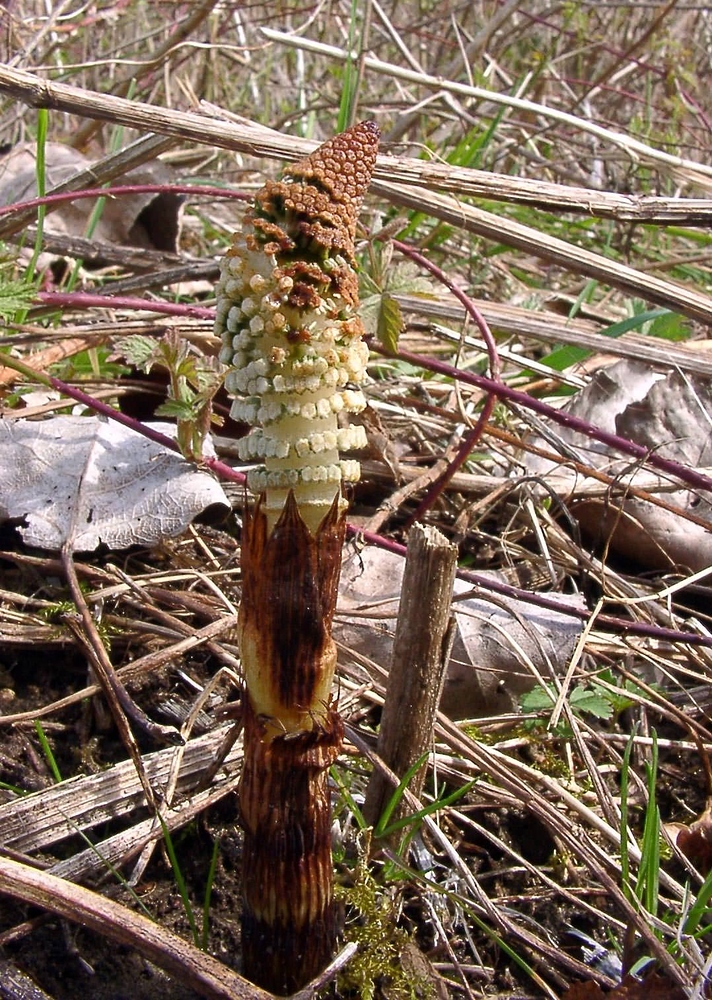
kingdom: Plantae
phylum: Tracheophyta
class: Polypodiopsida
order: Equisetales
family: Equisetaceae
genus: Equisetum
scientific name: Equisetum telmateia
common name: Great horsetail
